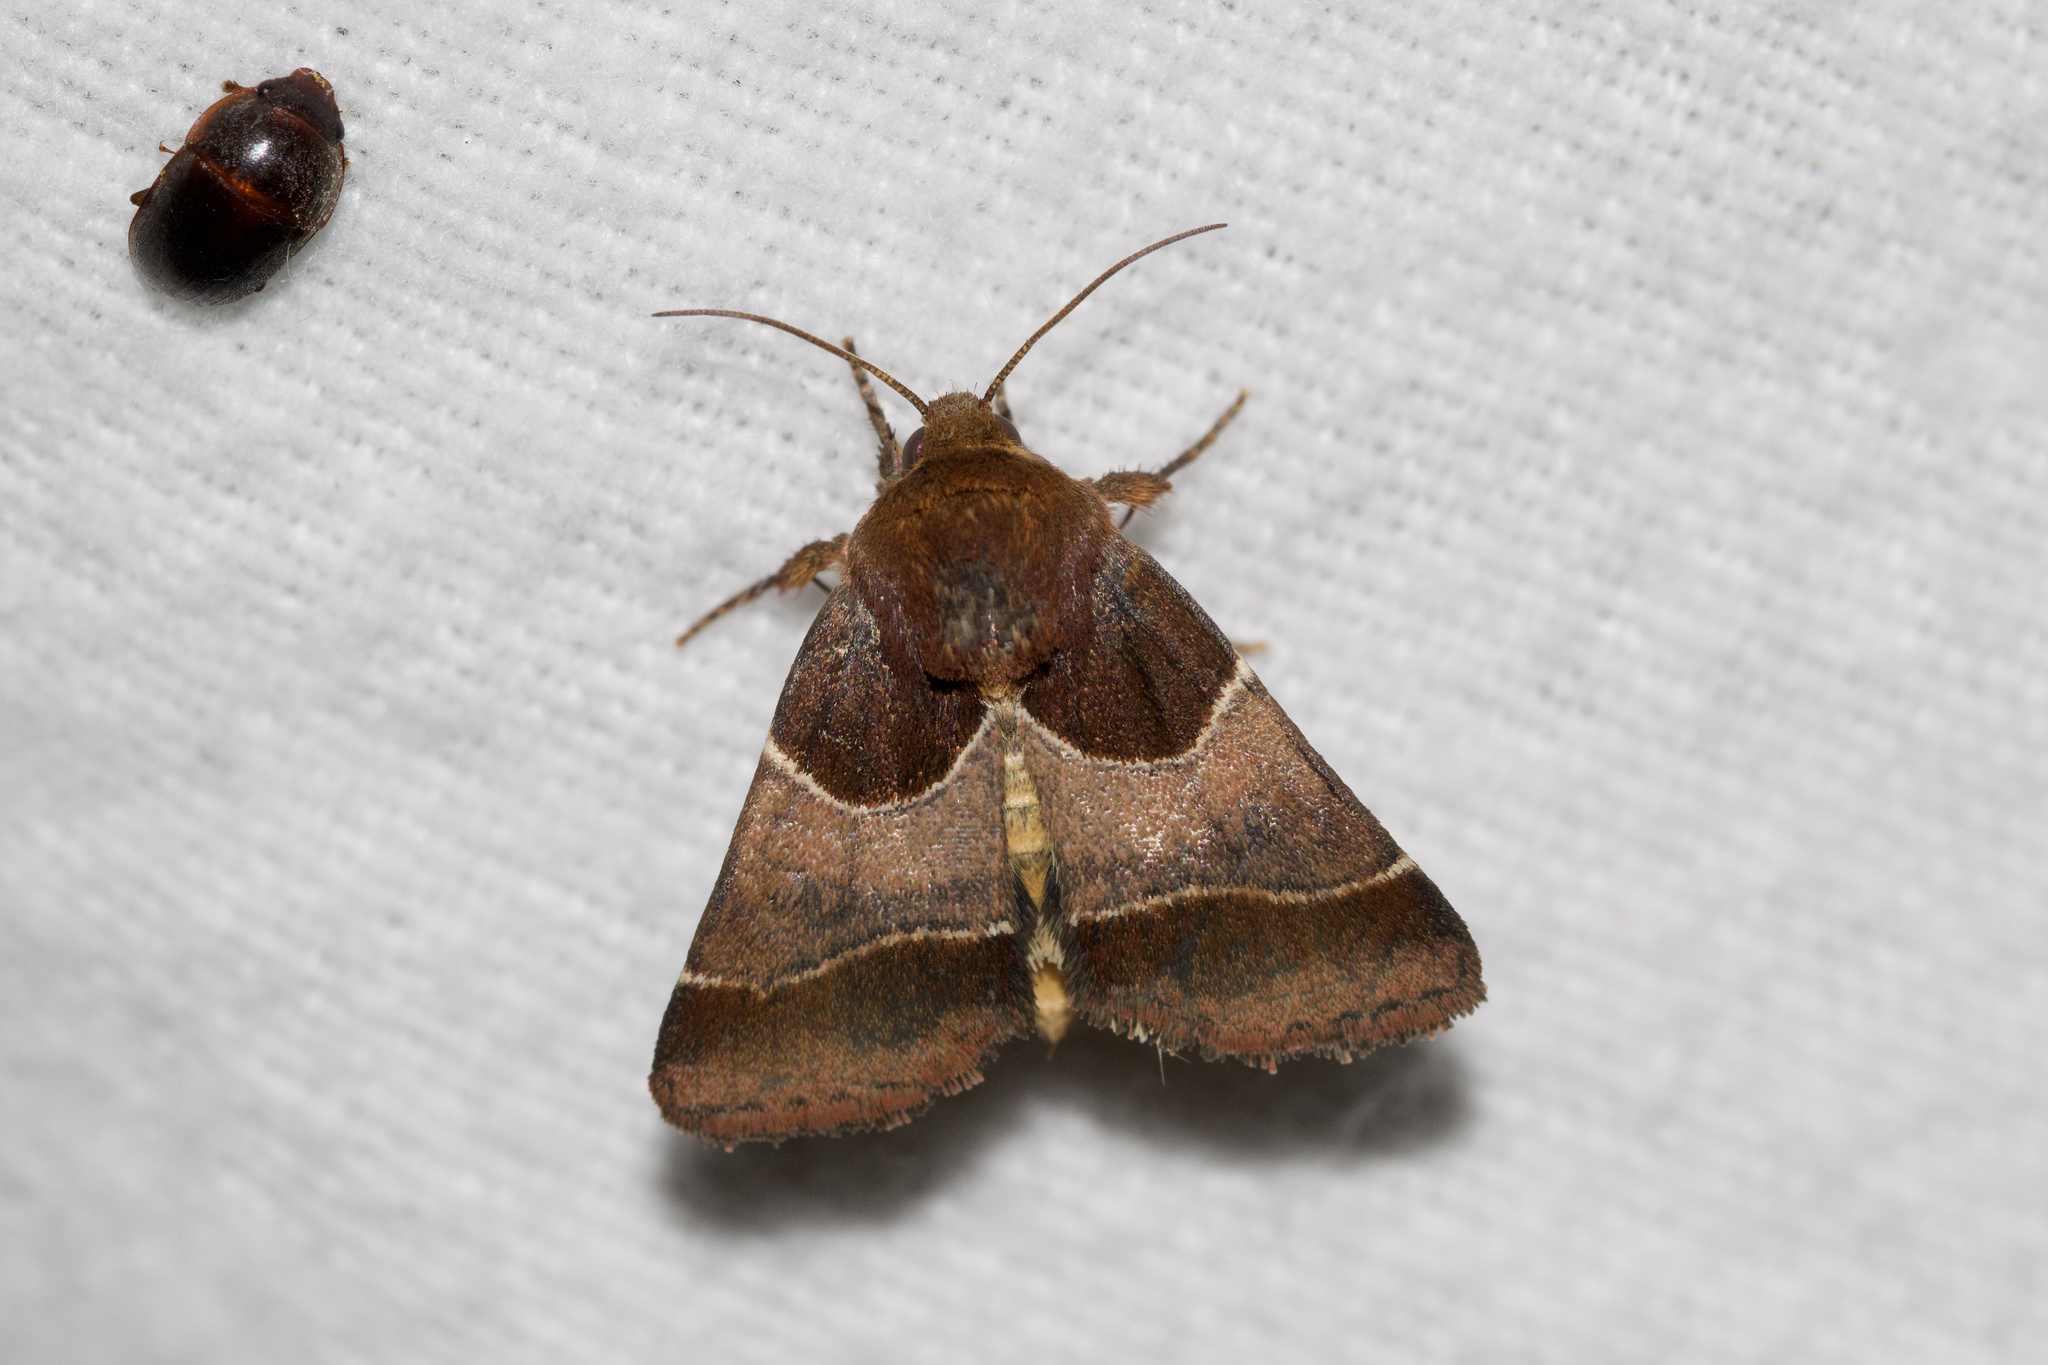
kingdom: Animalia
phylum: Arthropoda
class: Insecta
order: Lepidoptera
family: Noctuidae
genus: Schinia
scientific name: Schinia arcigera
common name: Arcigera flower moth
